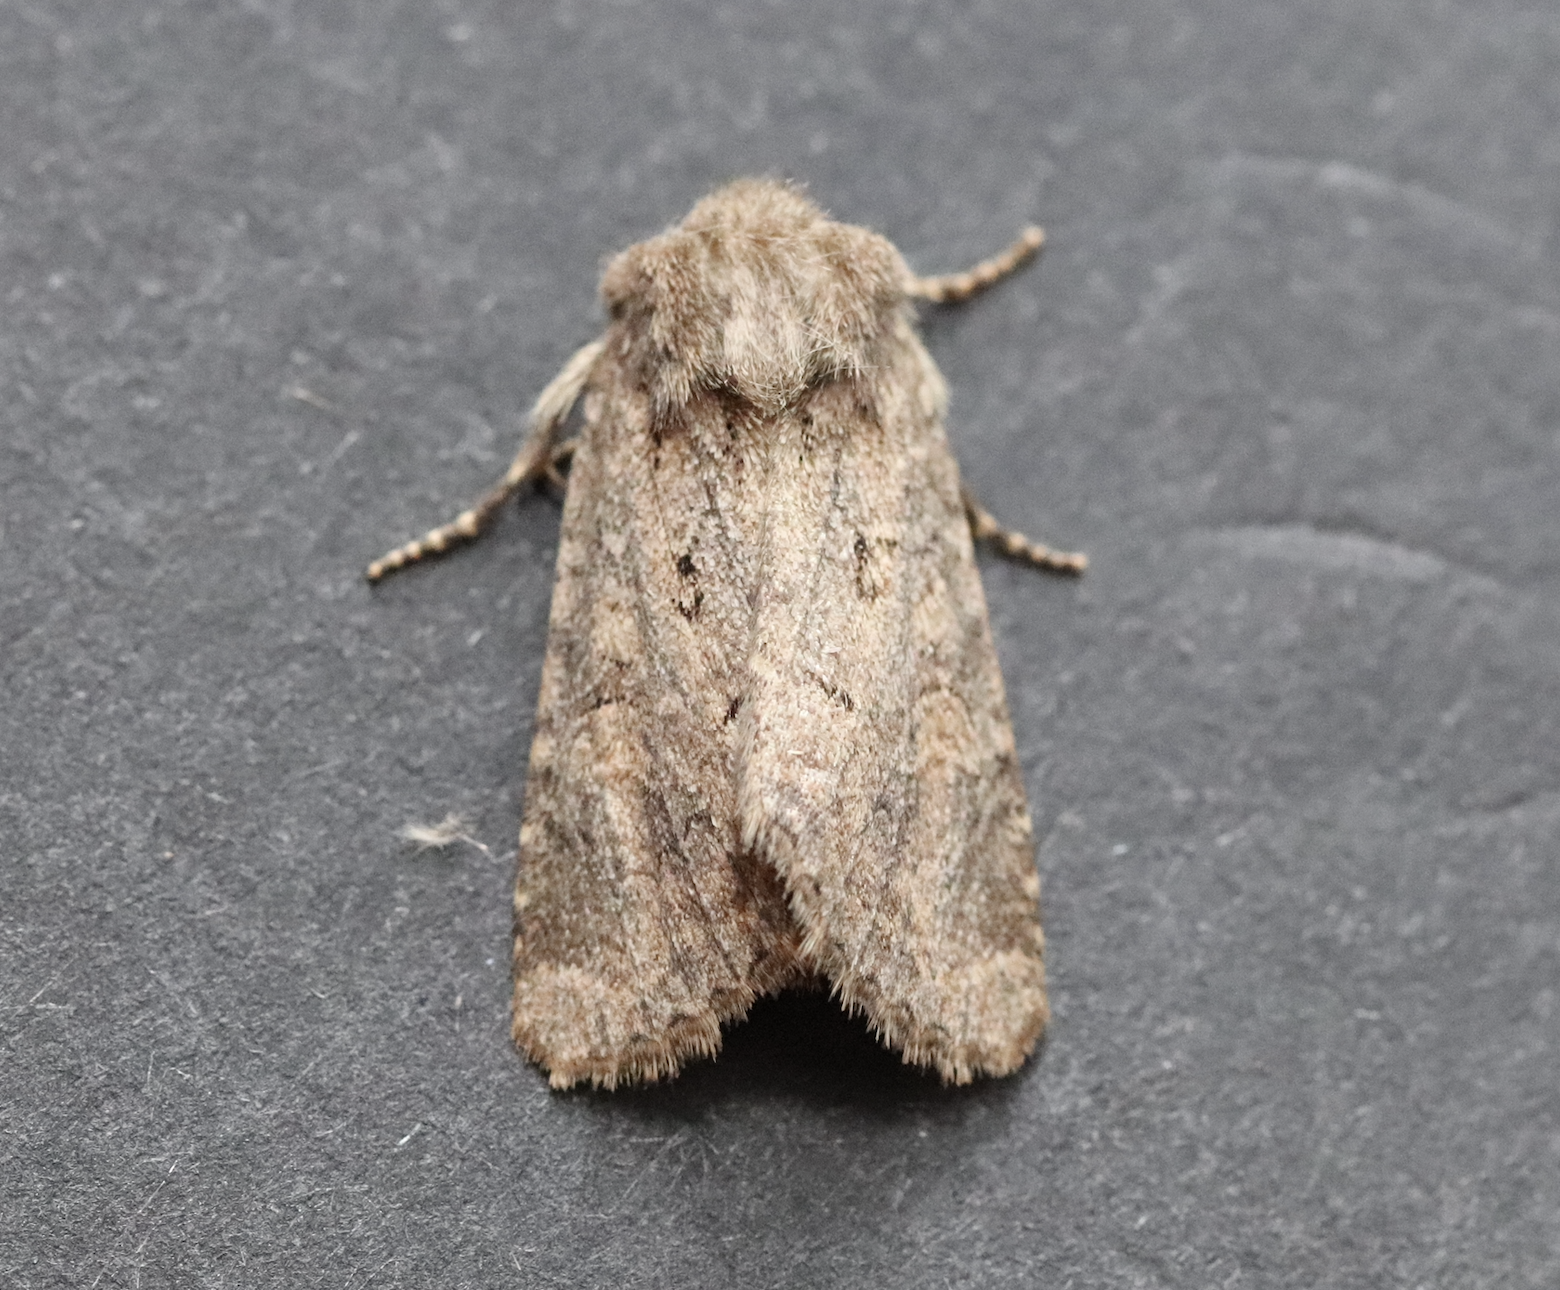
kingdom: Animalia
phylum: Arthropoda
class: Insecta
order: Lepidoptera
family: Noctuidae
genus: Luperina
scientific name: Luperina testacea
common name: Flounced rustic
